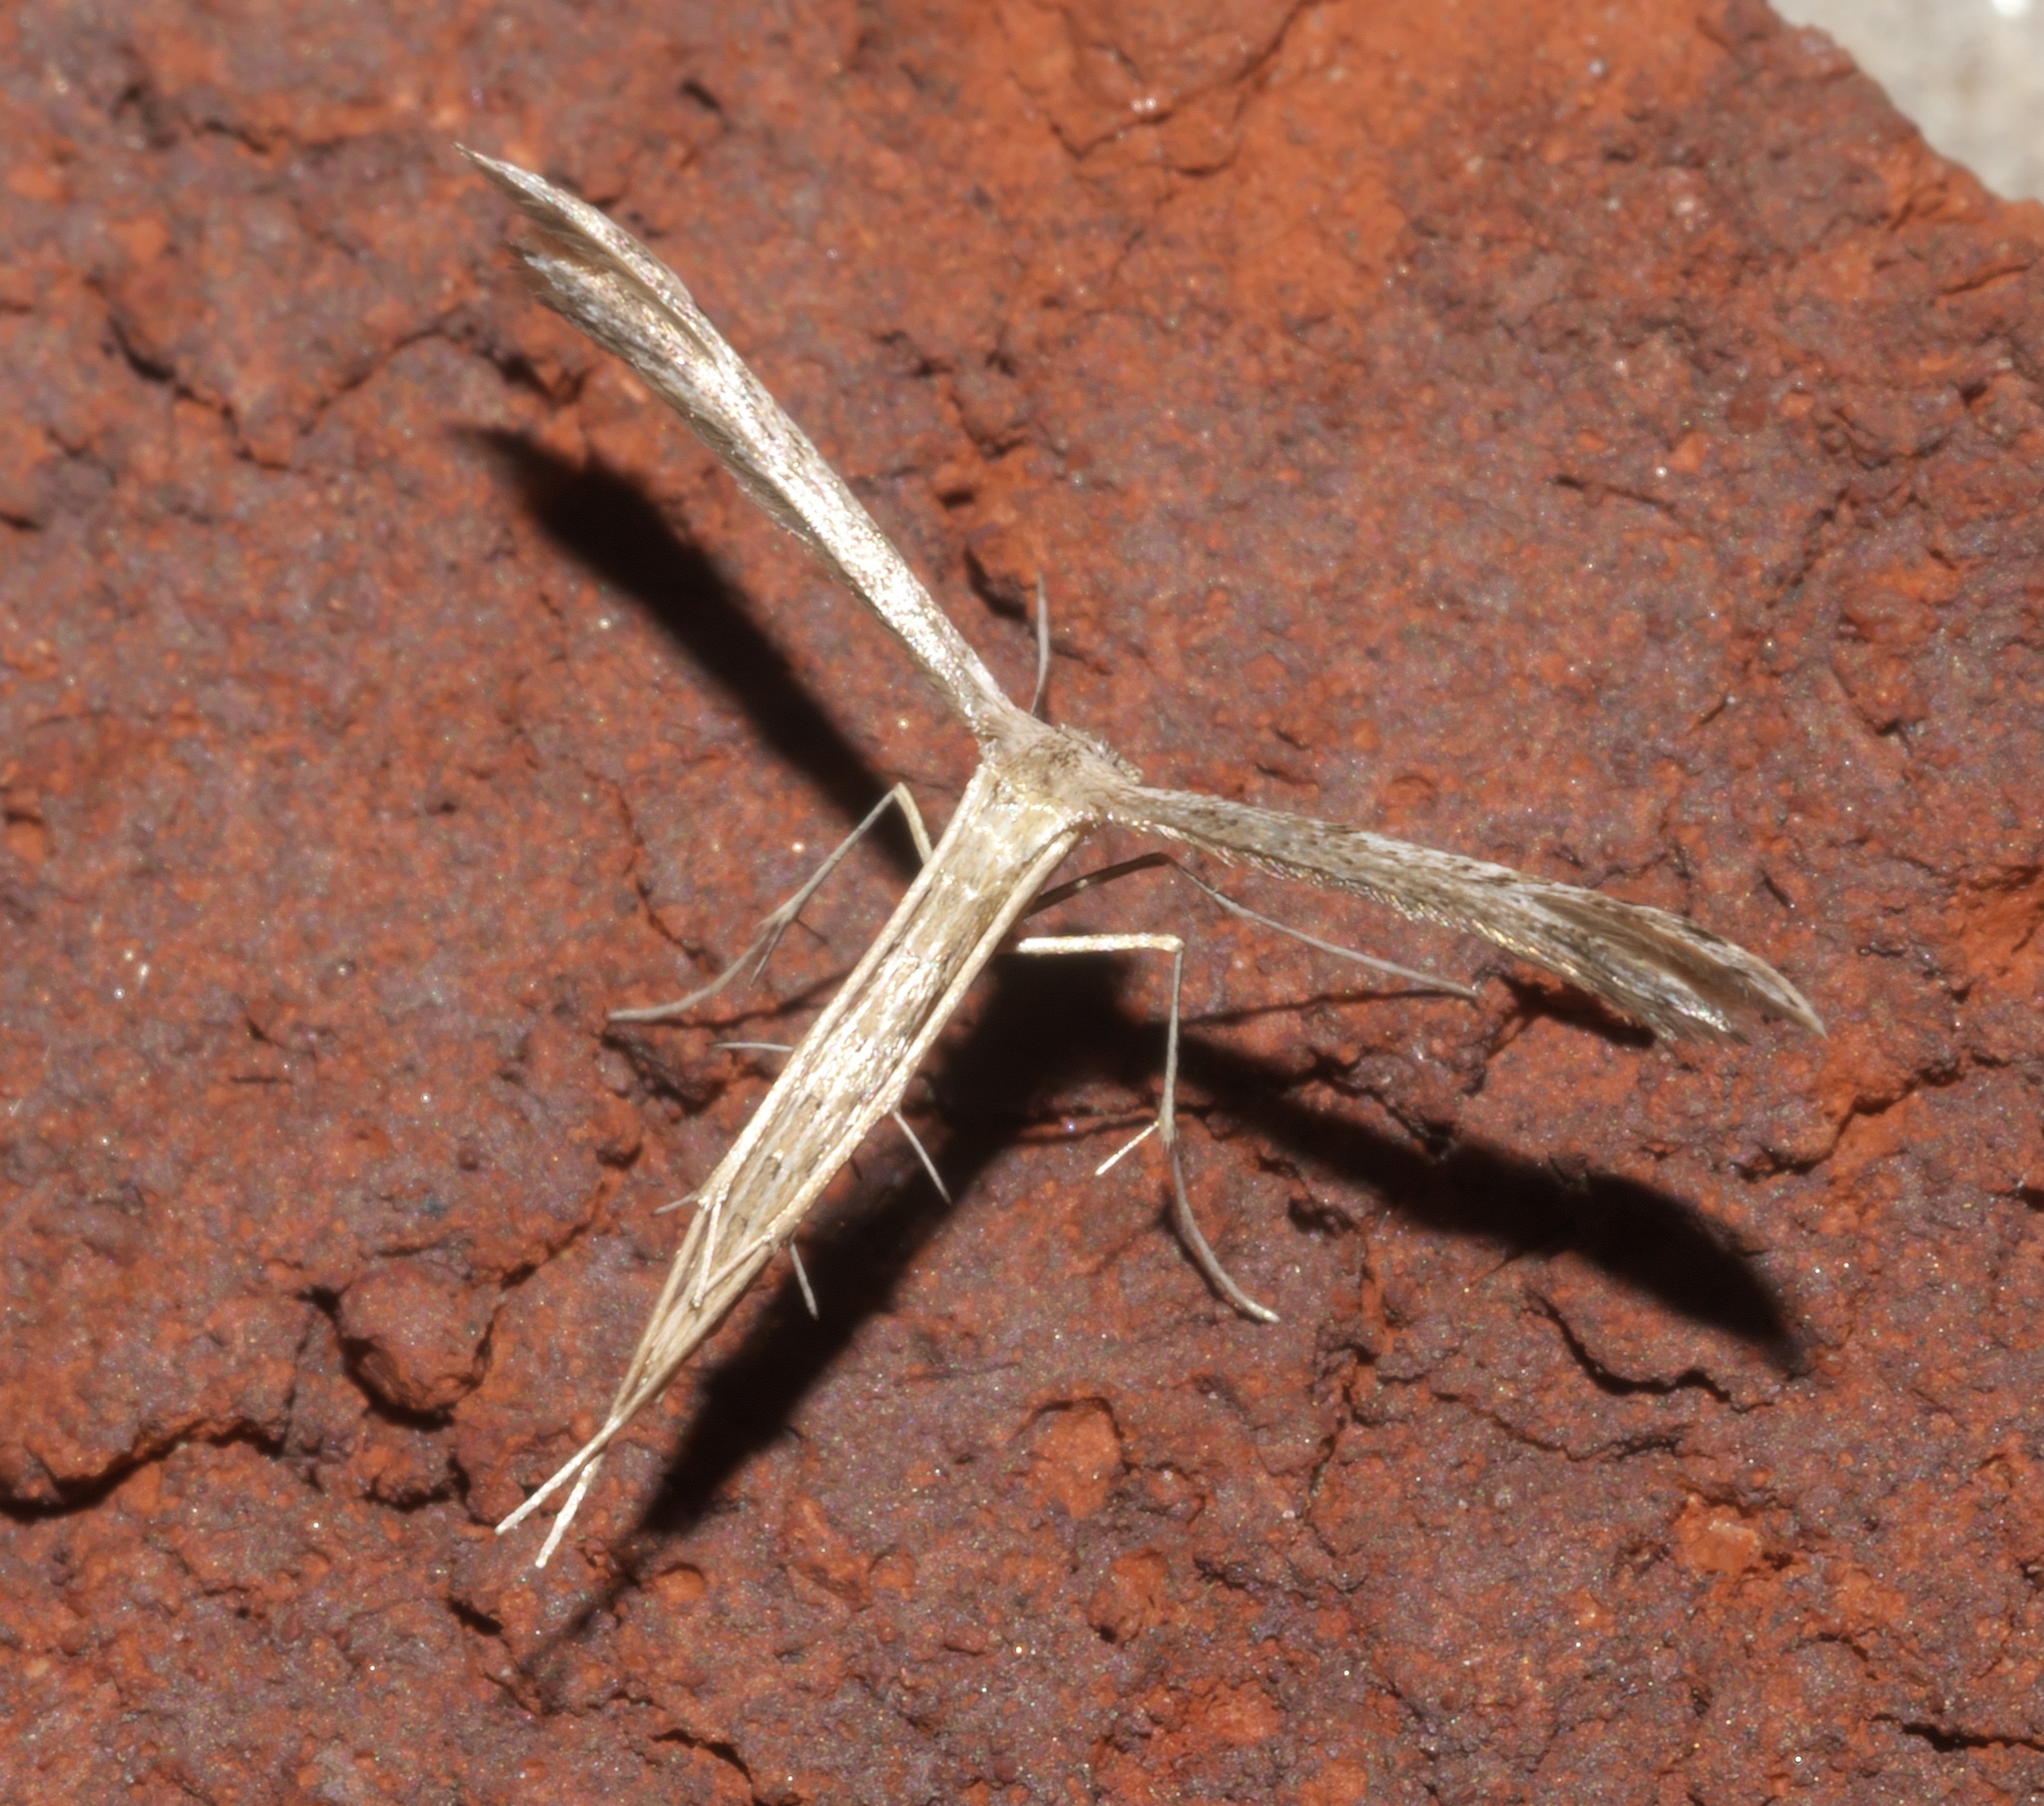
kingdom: Animalia
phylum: Arthropoda
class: Insecta
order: Lepidoptera
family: Pterophoridae
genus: Pselnophorus
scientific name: Pselnophorus belfragei
